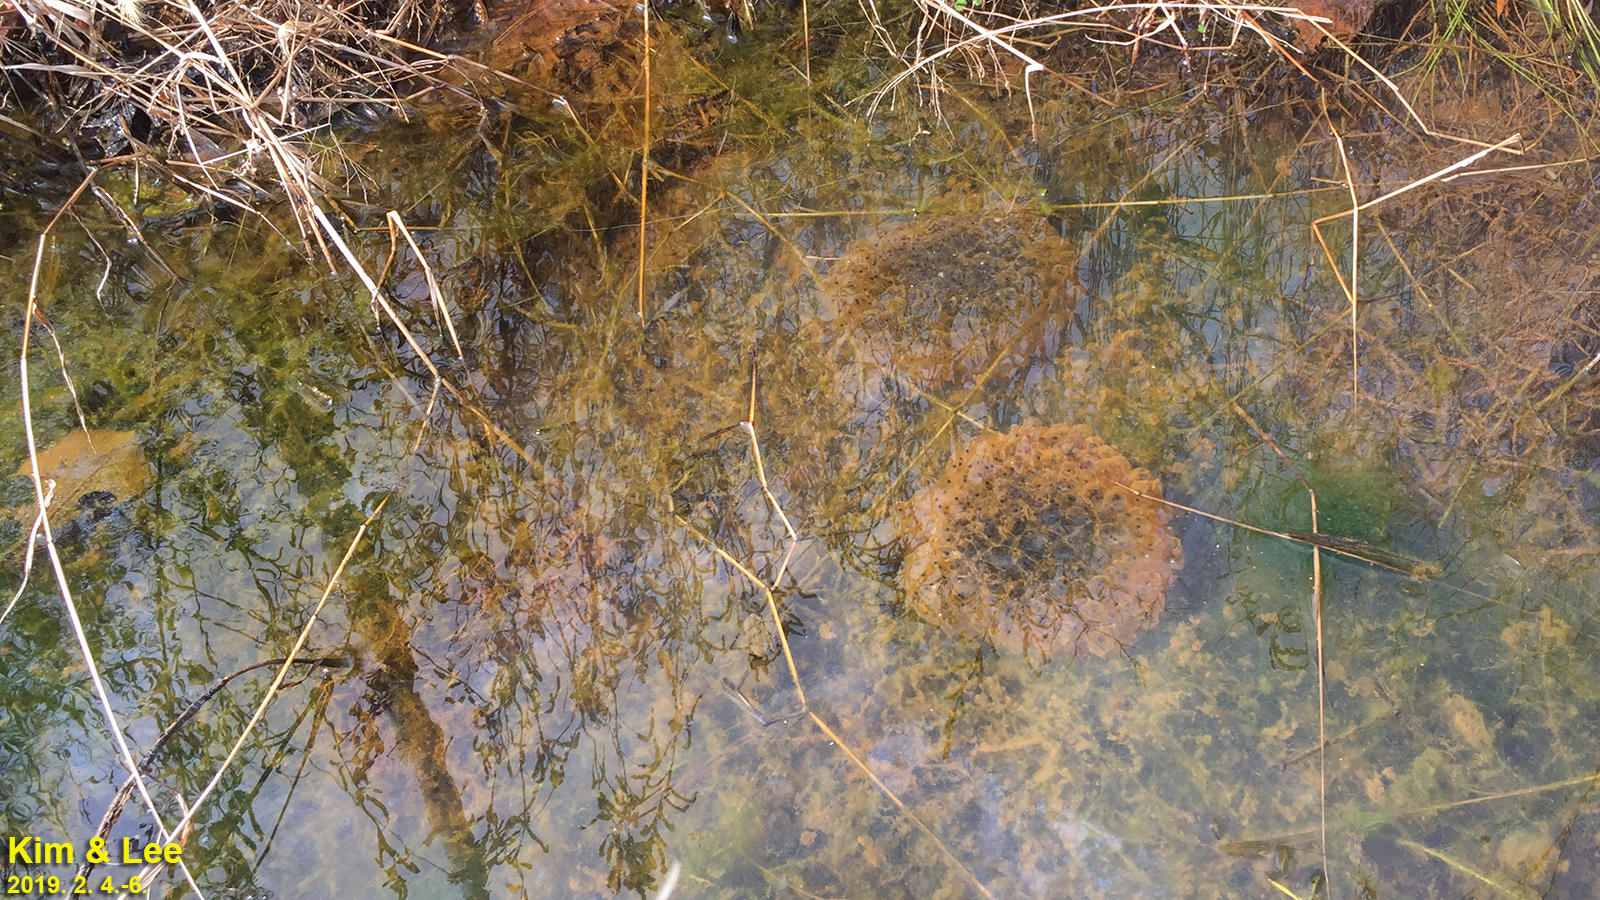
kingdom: Animalia
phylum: Chordata
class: Amphibia
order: Anura
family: Ranidae
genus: Rana
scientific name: Rana uenoi
